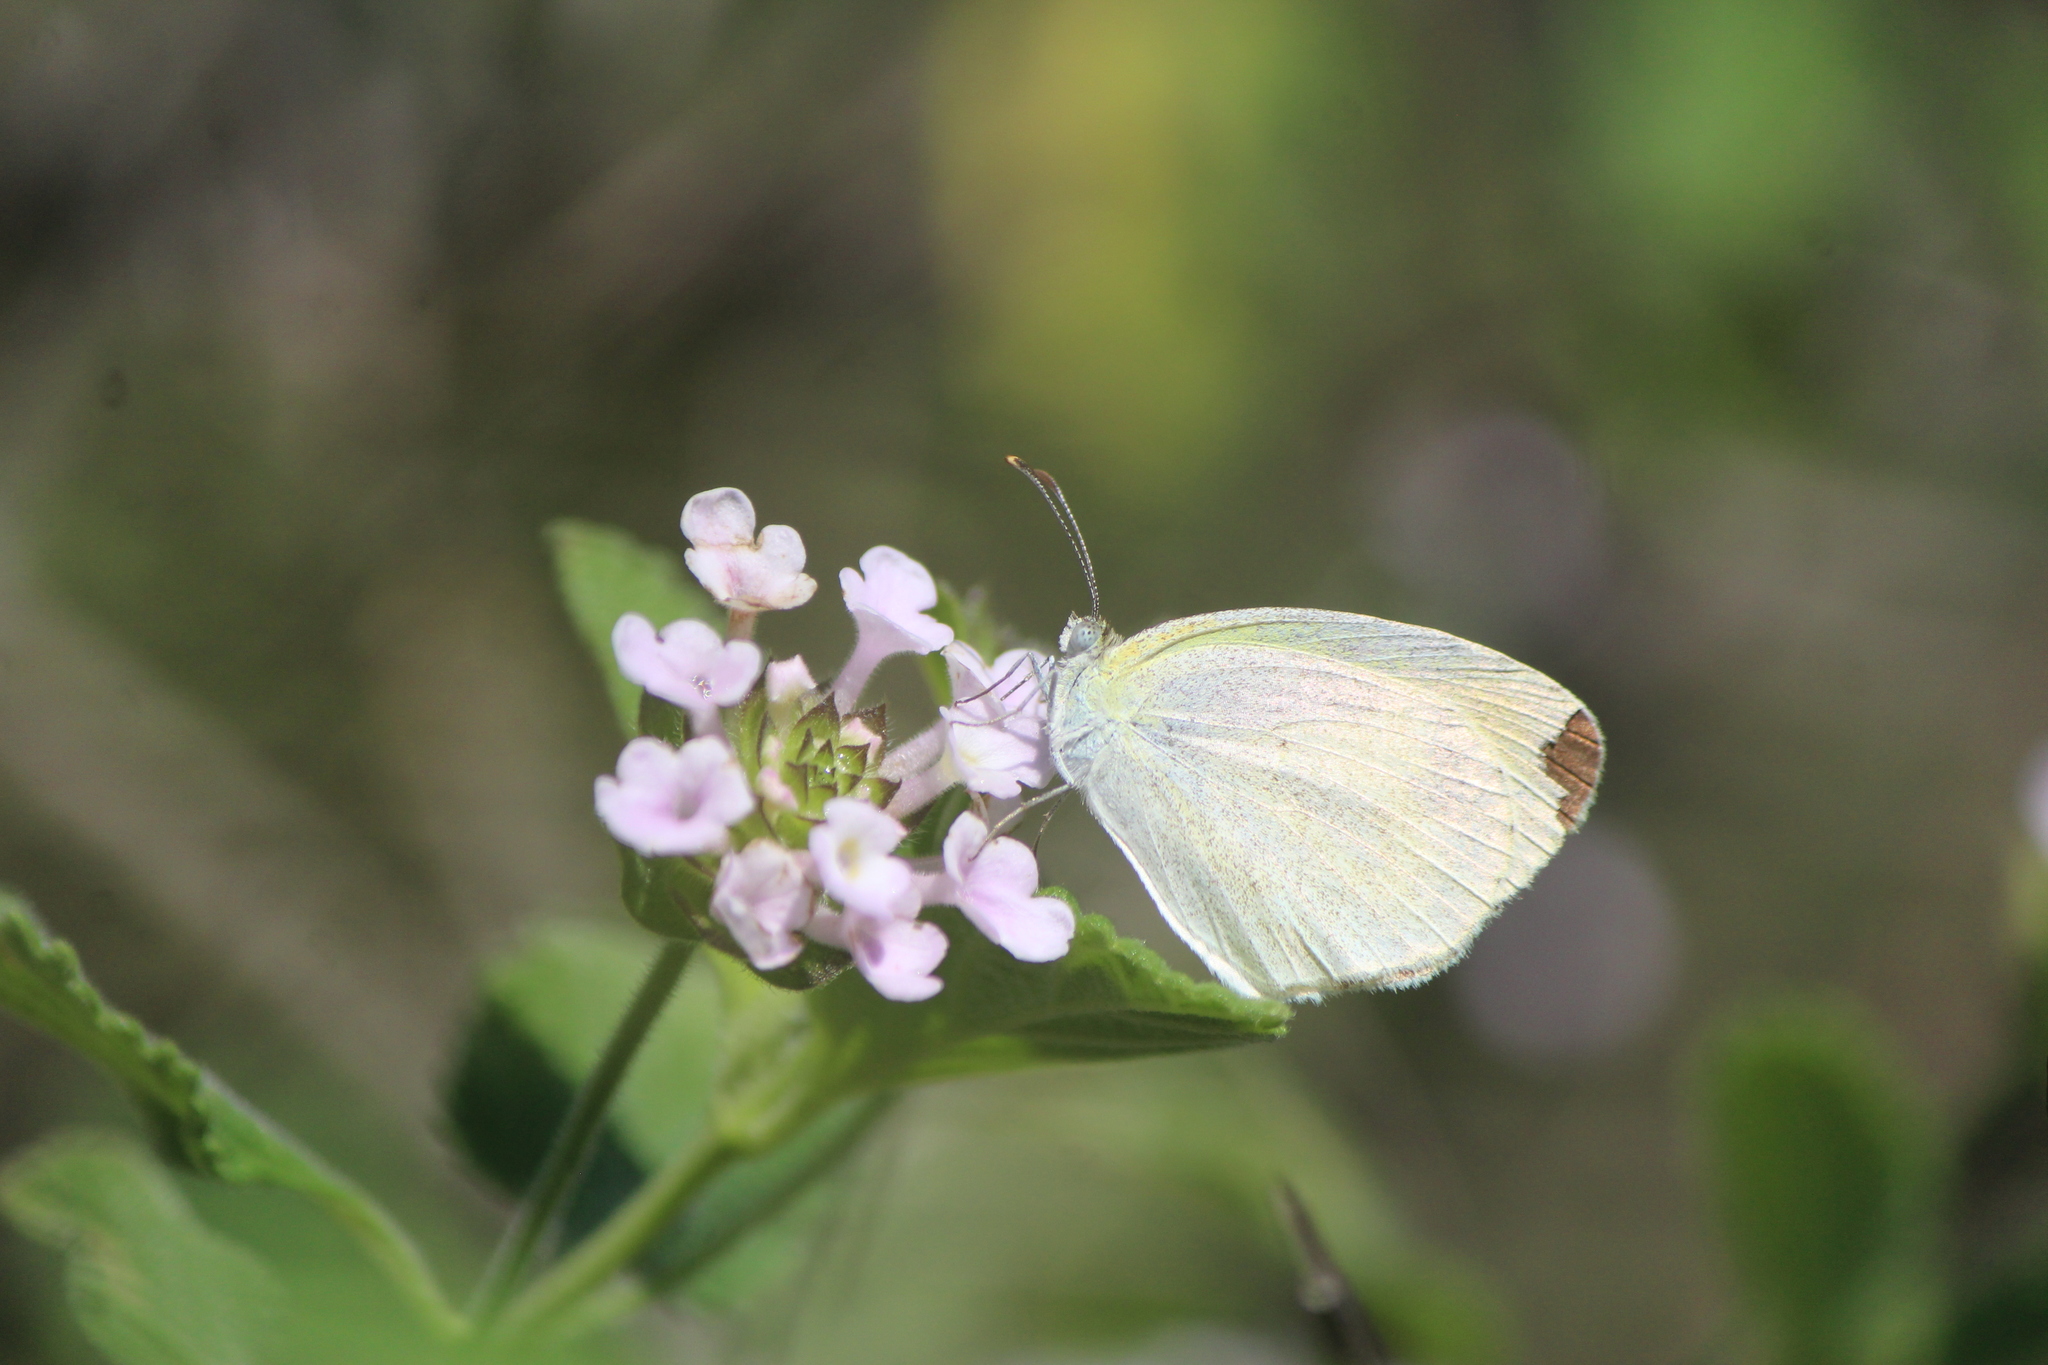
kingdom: Animalia
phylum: Arthropoda
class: Insecta
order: Lepidoptera
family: Pieridae
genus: Eurema
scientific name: Eurema daira
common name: Barred sulphur
